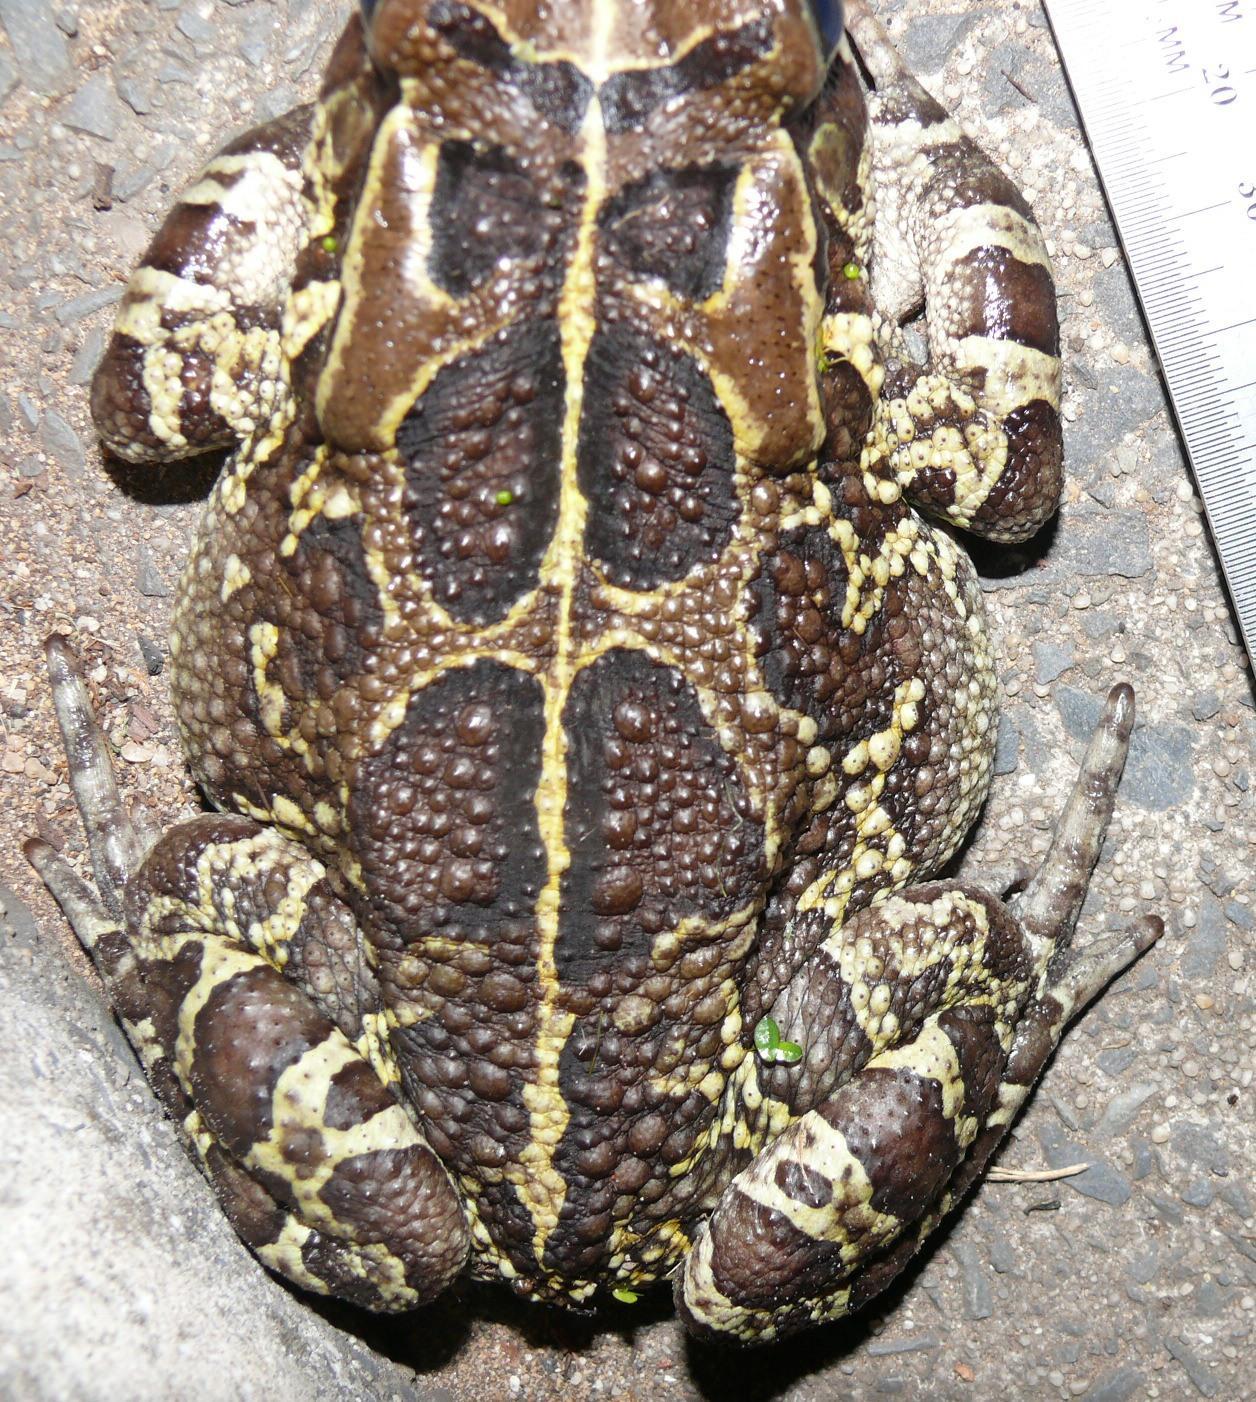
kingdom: Animalia
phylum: Chordata
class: Amphibia
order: Anura
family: Bufonidae
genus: Sclerophrys
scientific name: Sclerophrys pantherina
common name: Panther toad
